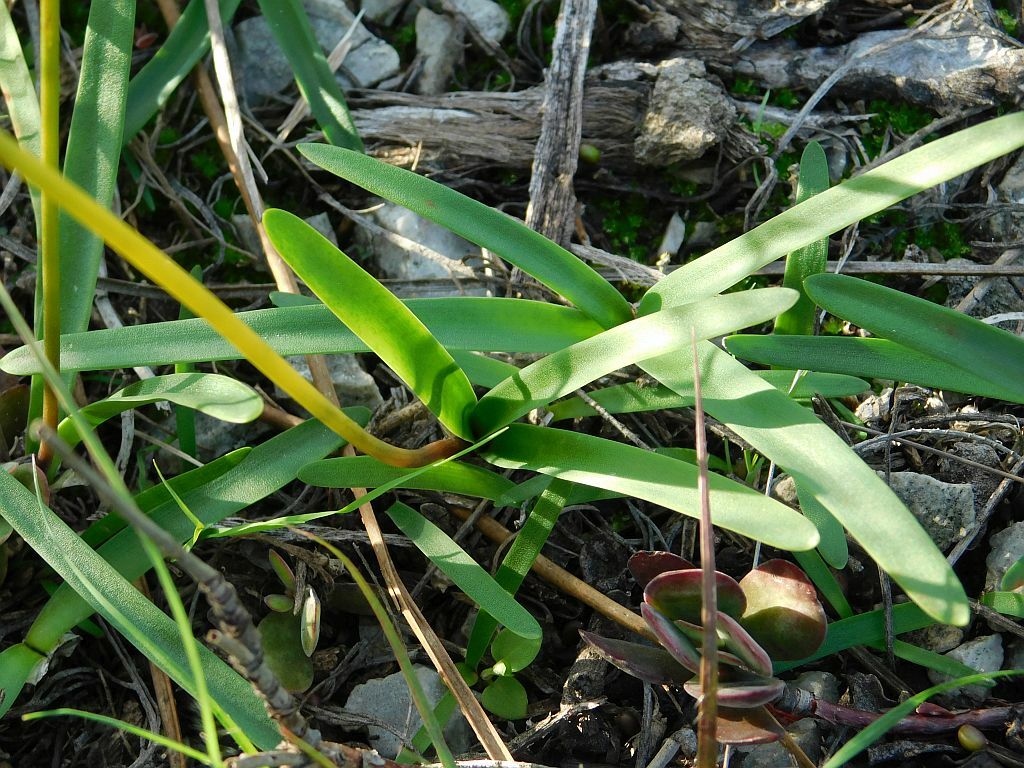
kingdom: Plantae
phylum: Tracheophyta
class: Liliopsida
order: Asparagales
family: Amaryllidaceae
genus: Nerine
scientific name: Nerine humilis
